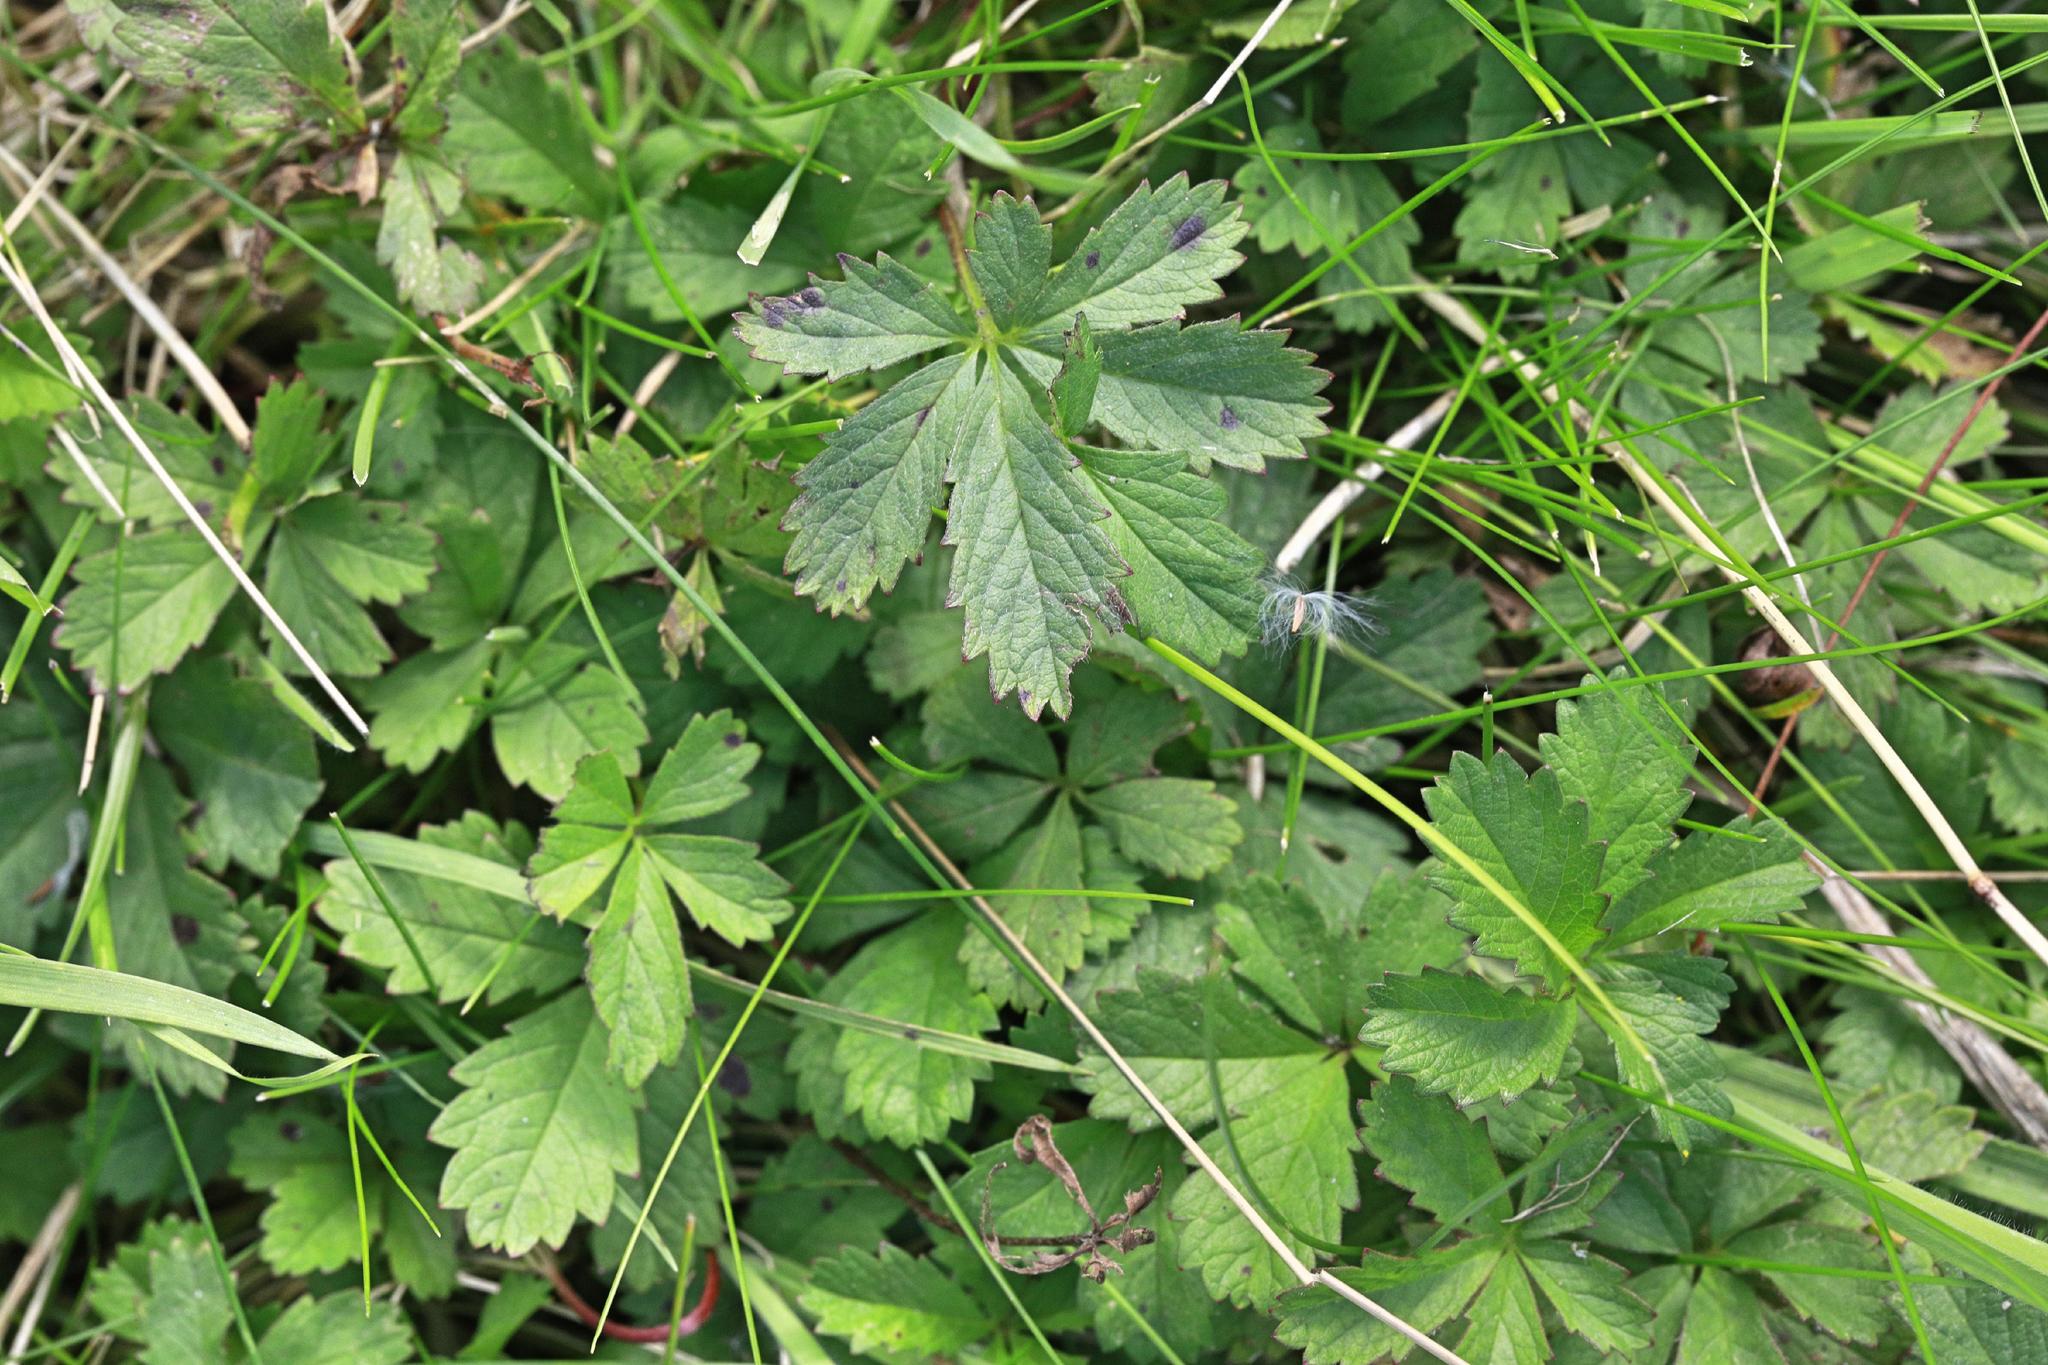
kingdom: Plantae
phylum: Tracheophyta
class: Magnoliopsida
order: Rosales
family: Rosaceae
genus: Potentilla
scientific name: Potentilla reptans
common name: Creeping cinquefoil
